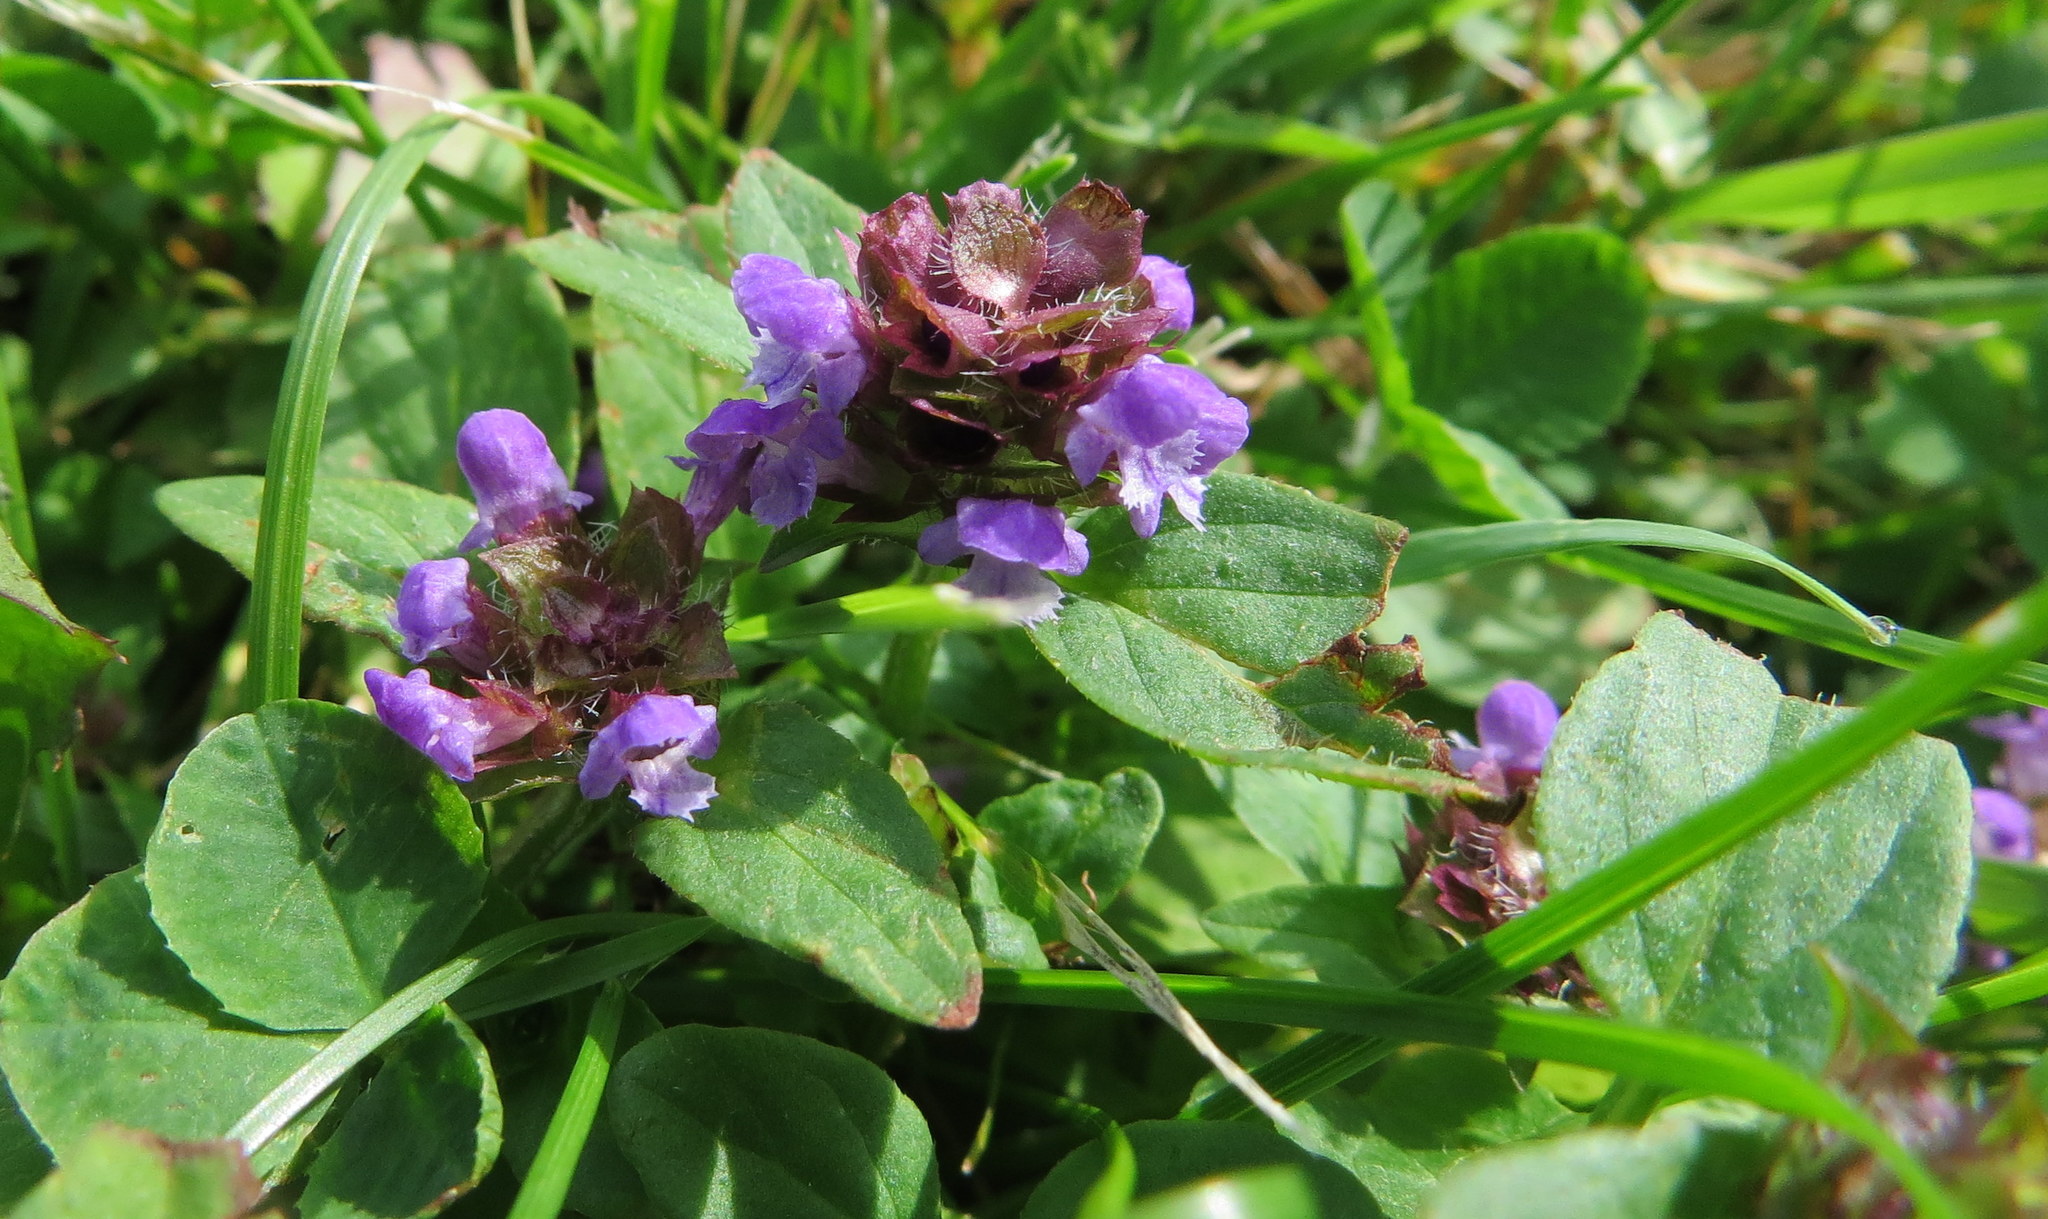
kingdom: Plantae
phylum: Tracheophyta
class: Magnoliopsida
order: Lamiales
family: Lamiaceae
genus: Prunella
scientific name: Prunella vulgaris
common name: Heal-all
